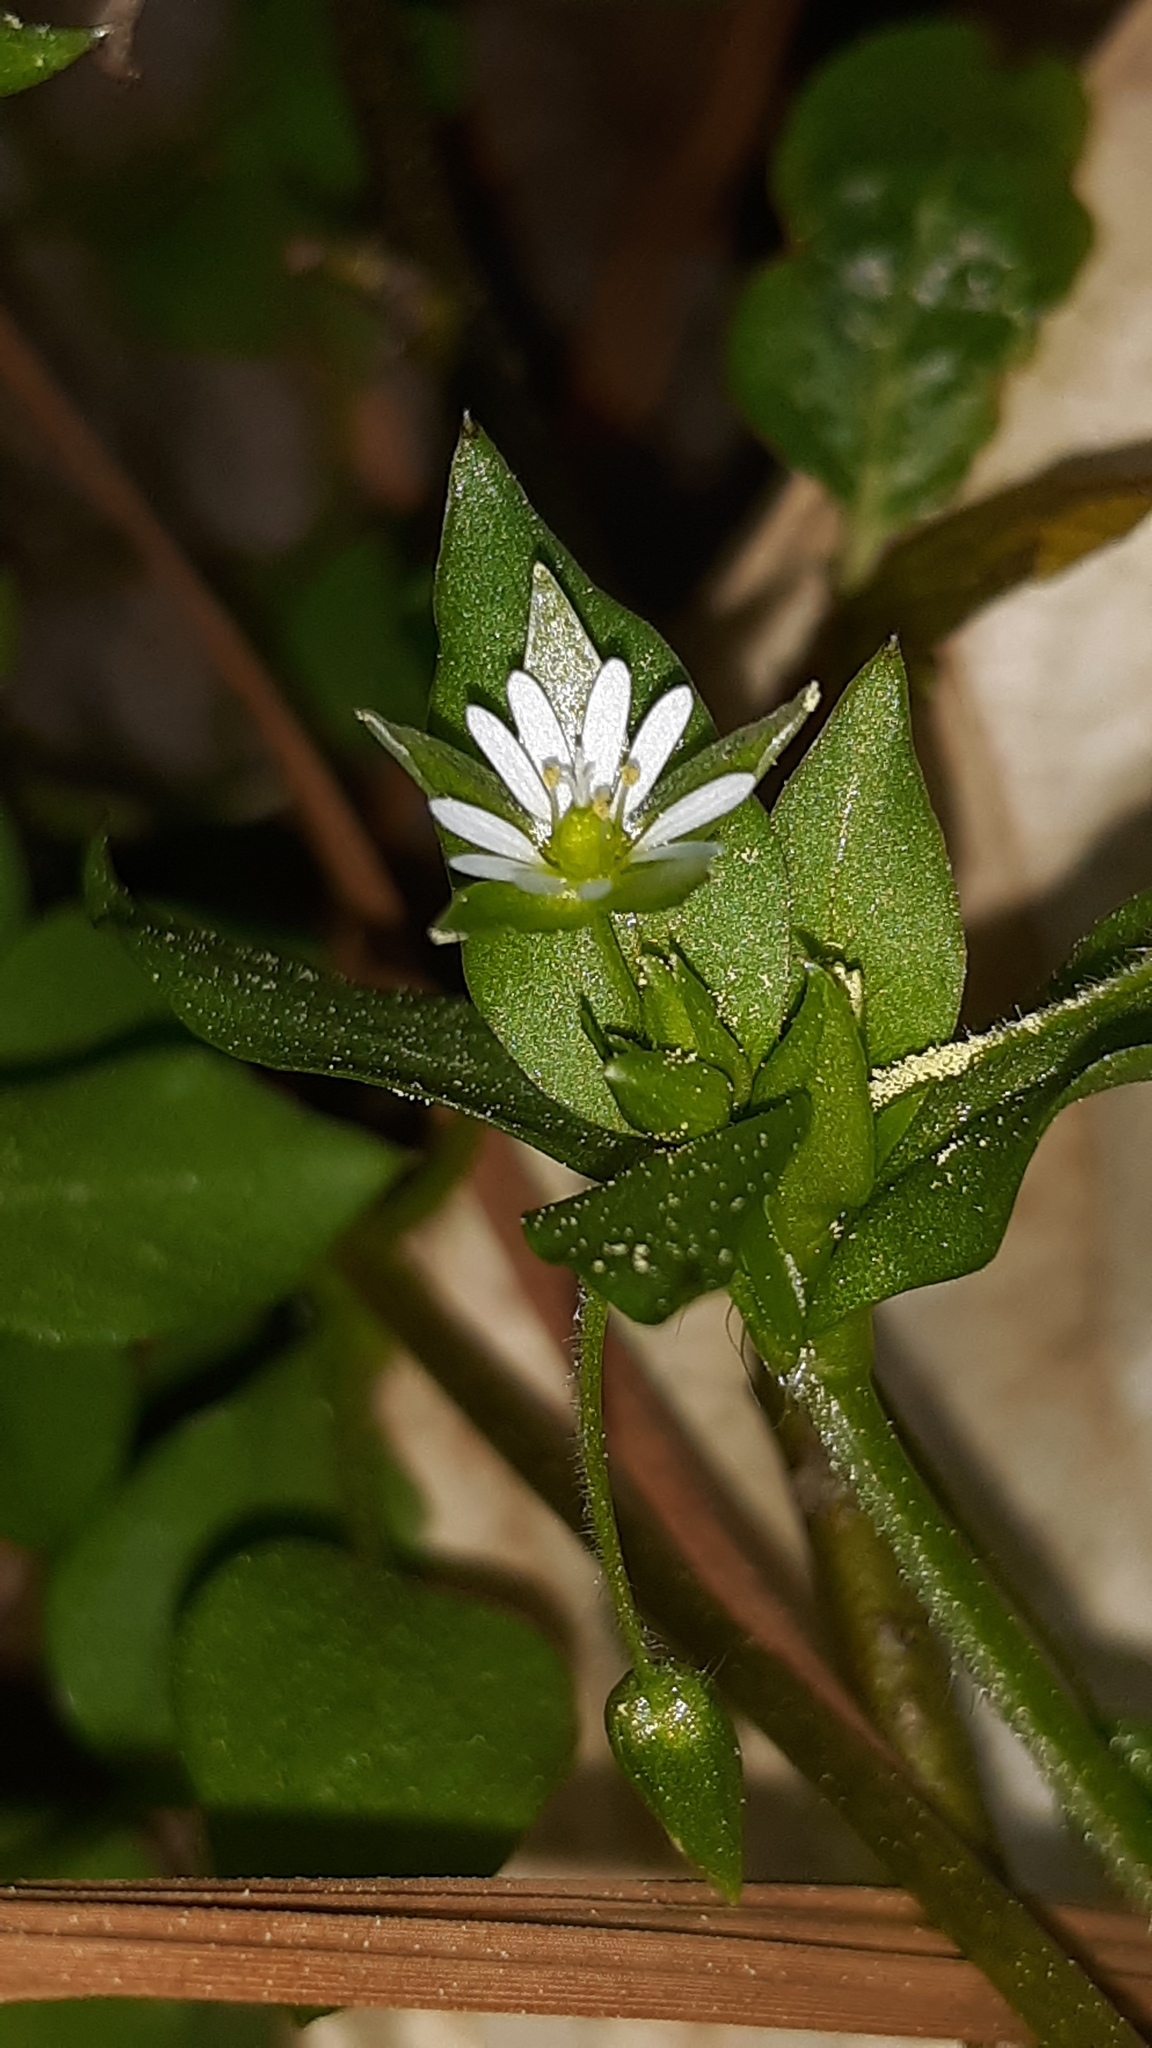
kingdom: Plantae
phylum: Tracheophyta
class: Magnoliopsida
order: Caryophyllales
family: Caryophyllaceae
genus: Stellaria
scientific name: Stellaria media
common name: Common chickweed
